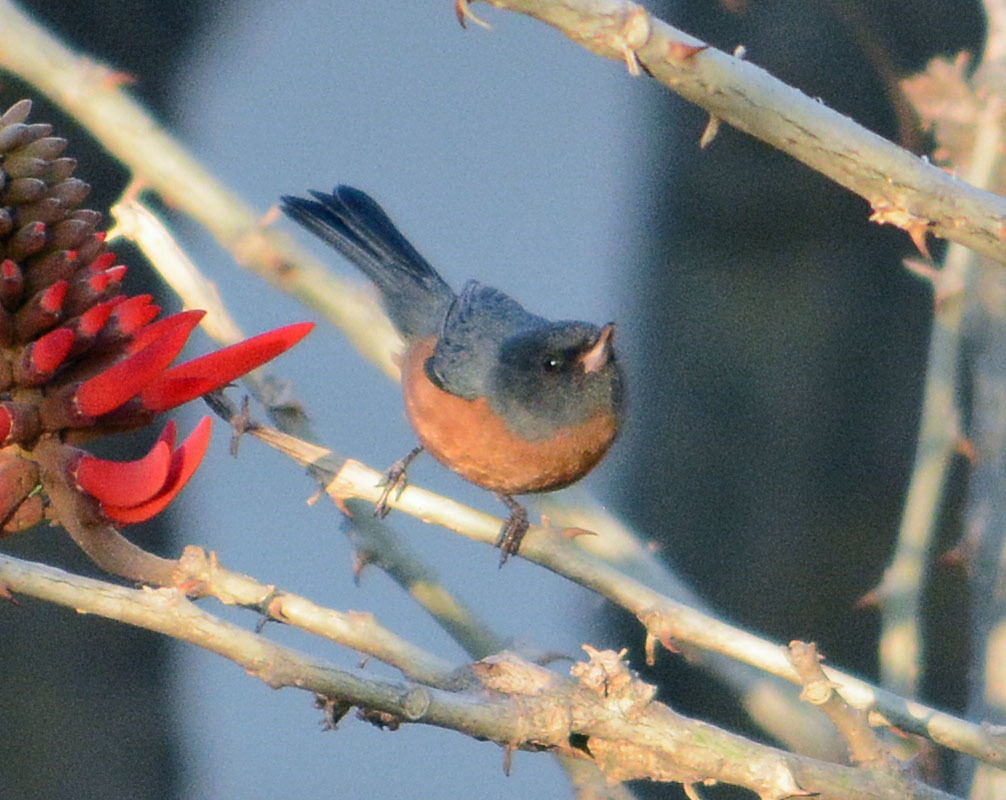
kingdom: Animalia
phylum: Chordata
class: Aves
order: Passeriformes
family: Thraupidae
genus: Diglossa
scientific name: Diglossa baritula
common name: Cinnamon-bellied flowerpiercer
